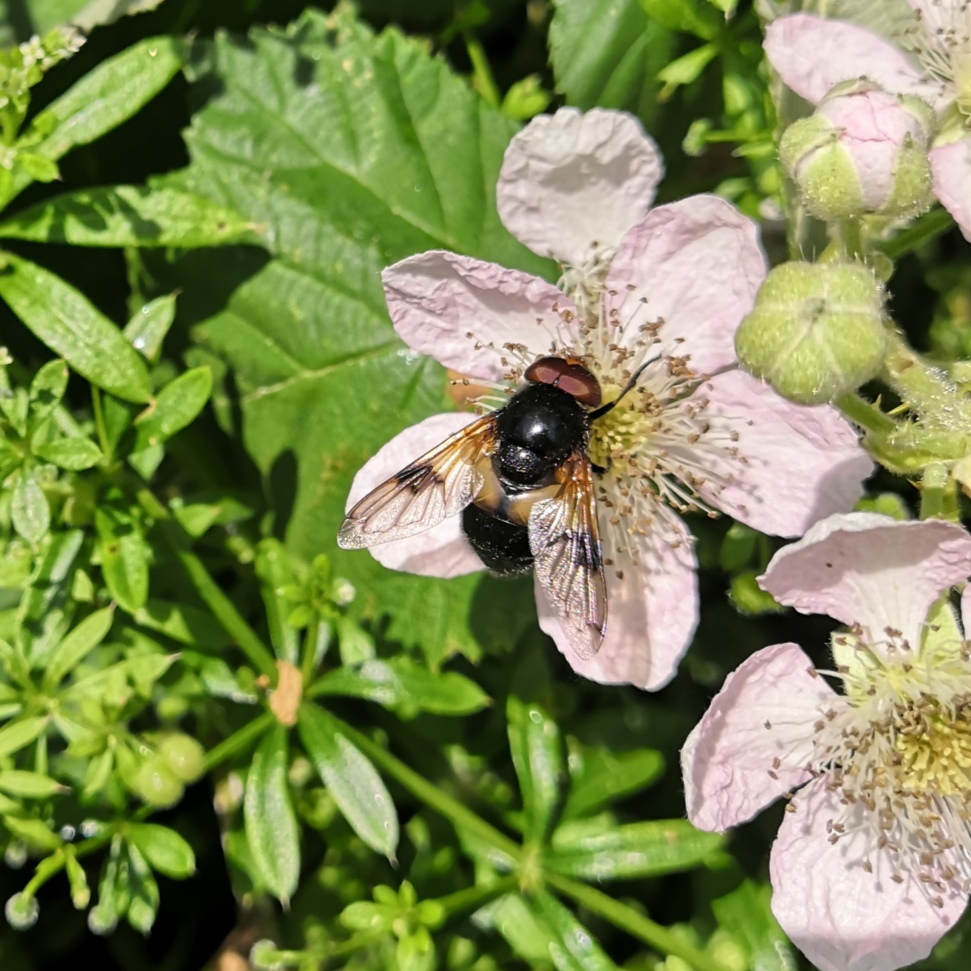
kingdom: Animalia
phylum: Arthropoda
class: Insecta
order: Diptera
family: Syrphidae
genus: Volucella
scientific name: Volucella pellucens
